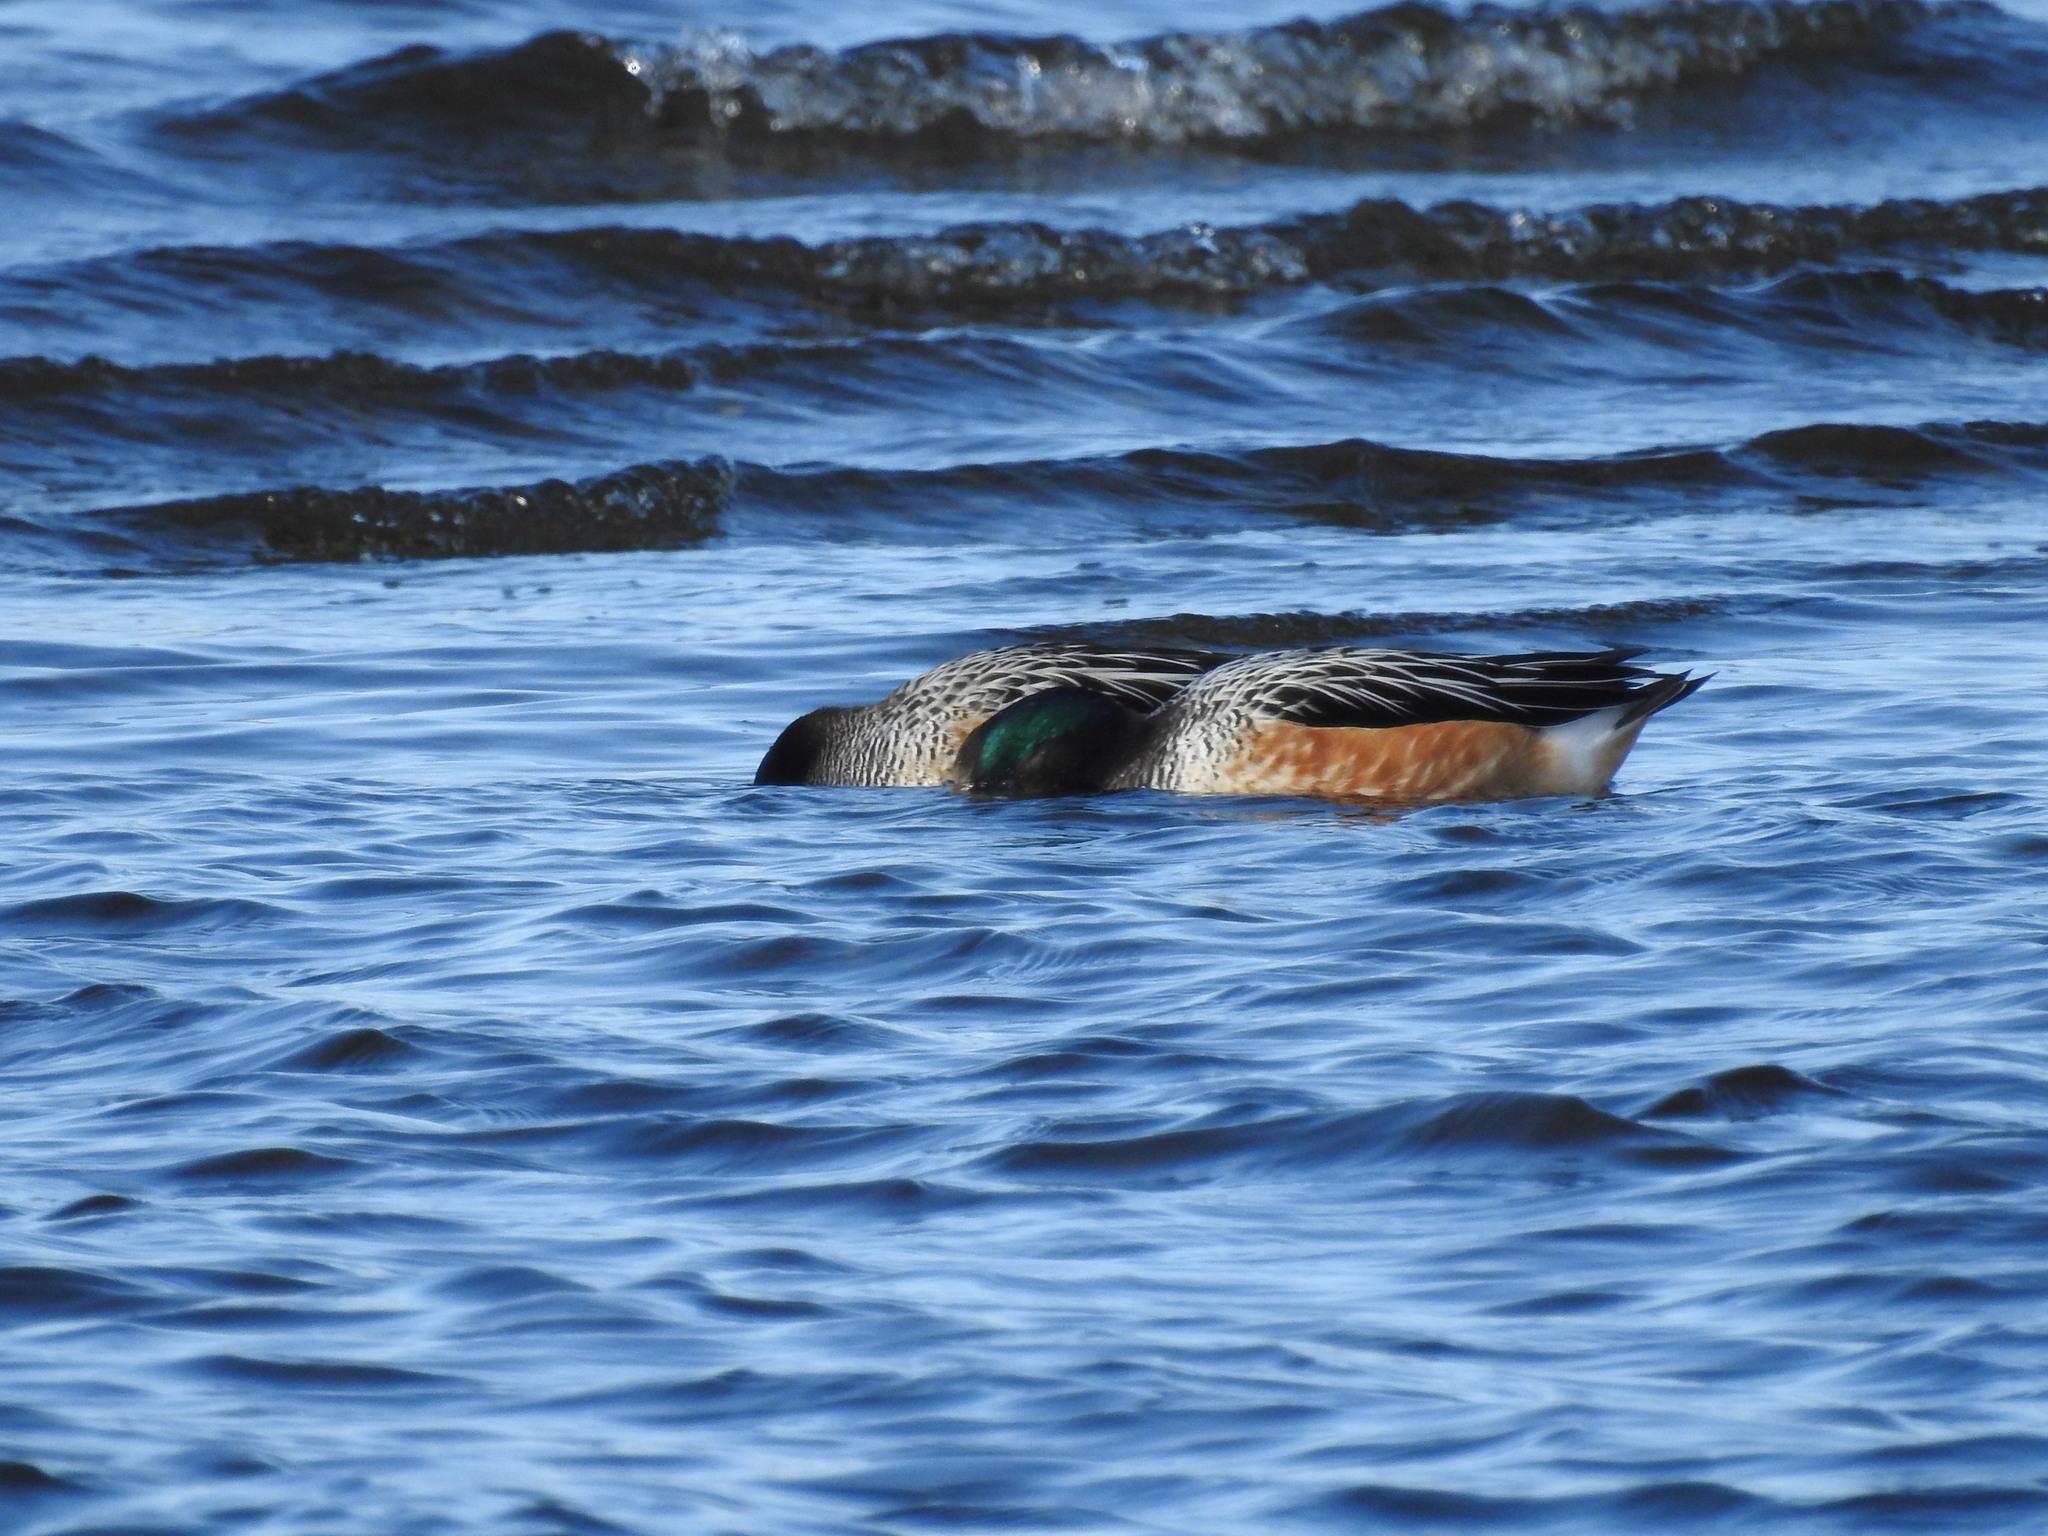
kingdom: Animalia
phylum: Chordata
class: Aves
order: Anseriformes
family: Anatidae
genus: Mareca
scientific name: Mareca sibilatrix
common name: Chiloe wigeon
